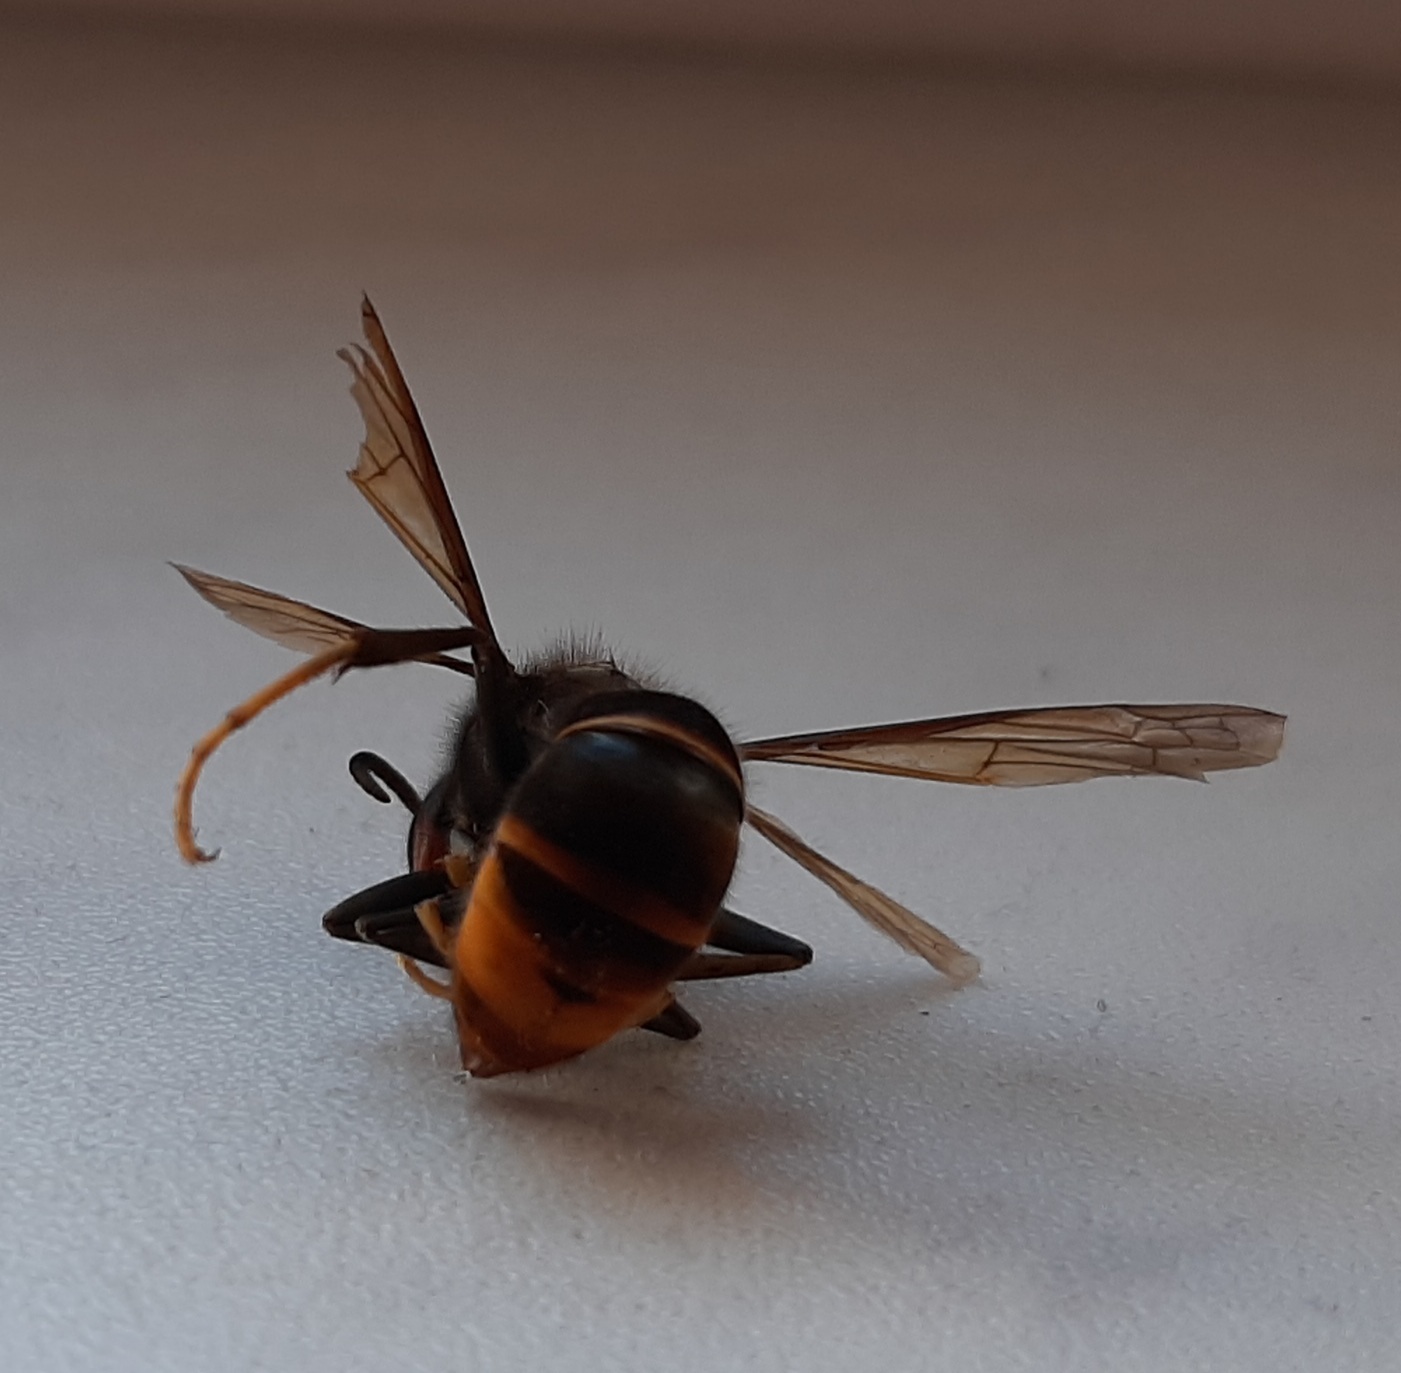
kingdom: Animalia
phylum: Arthropoda
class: Insecta
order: Hymenoptera
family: Vespidae
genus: Vespa
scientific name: Vespa velutina
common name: Asian hornet
